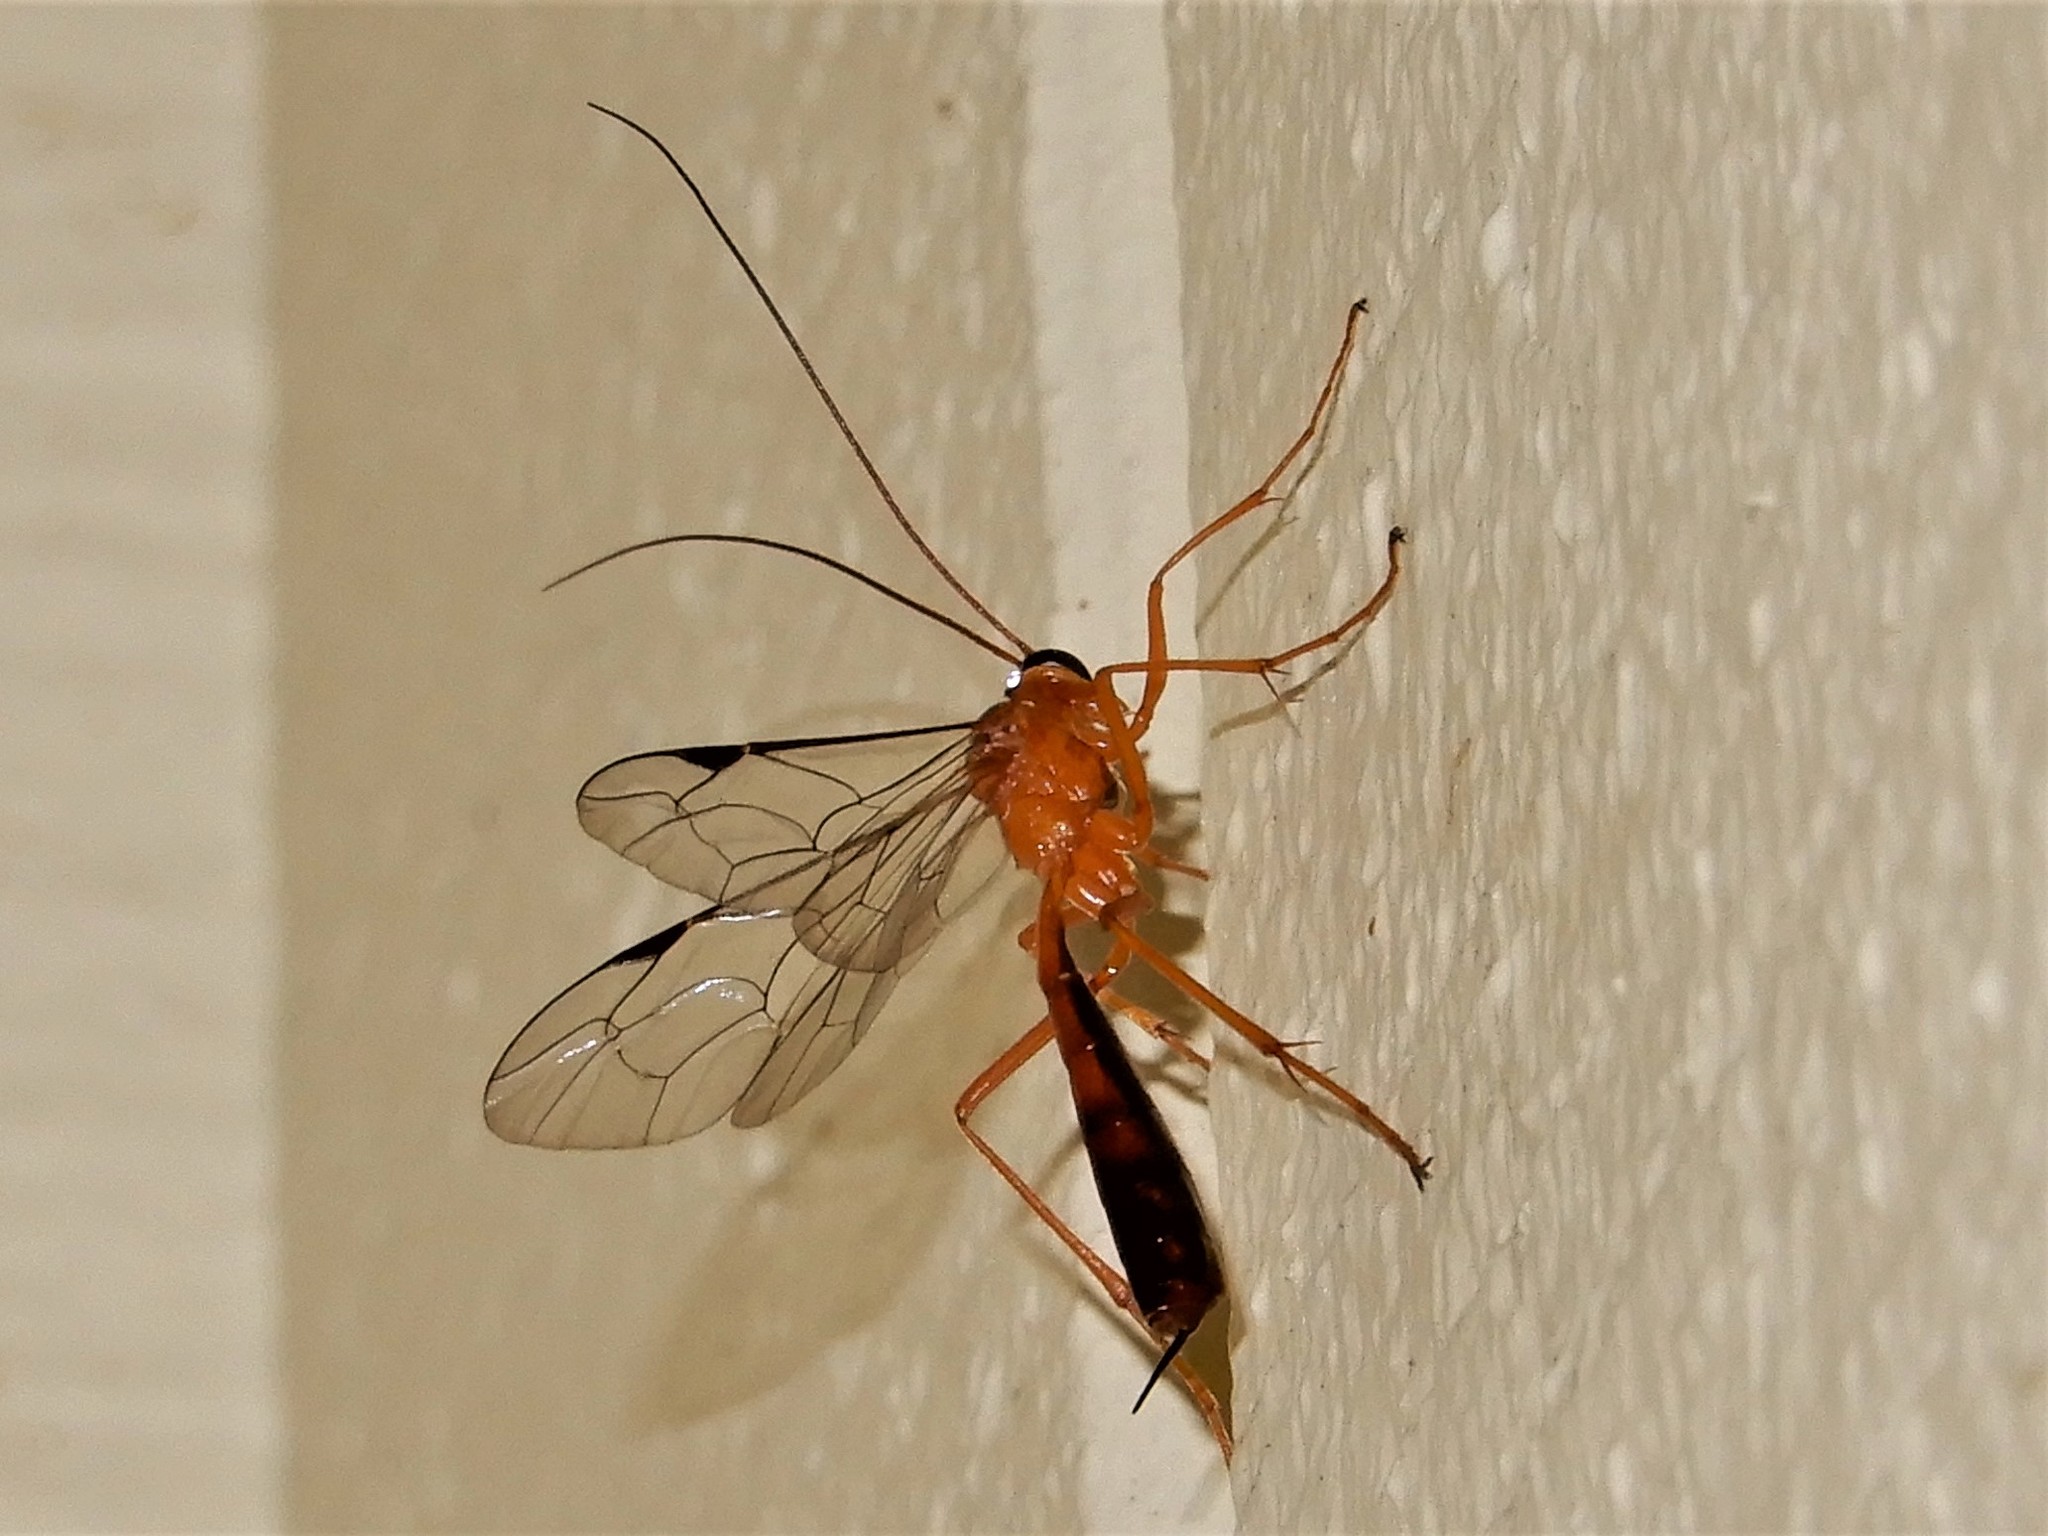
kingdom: Animalia
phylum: Arthropoda
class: Insecta
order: Hymenoptera
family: Ichneumonidae
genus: Netelia
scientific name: Netelia ephippiata
